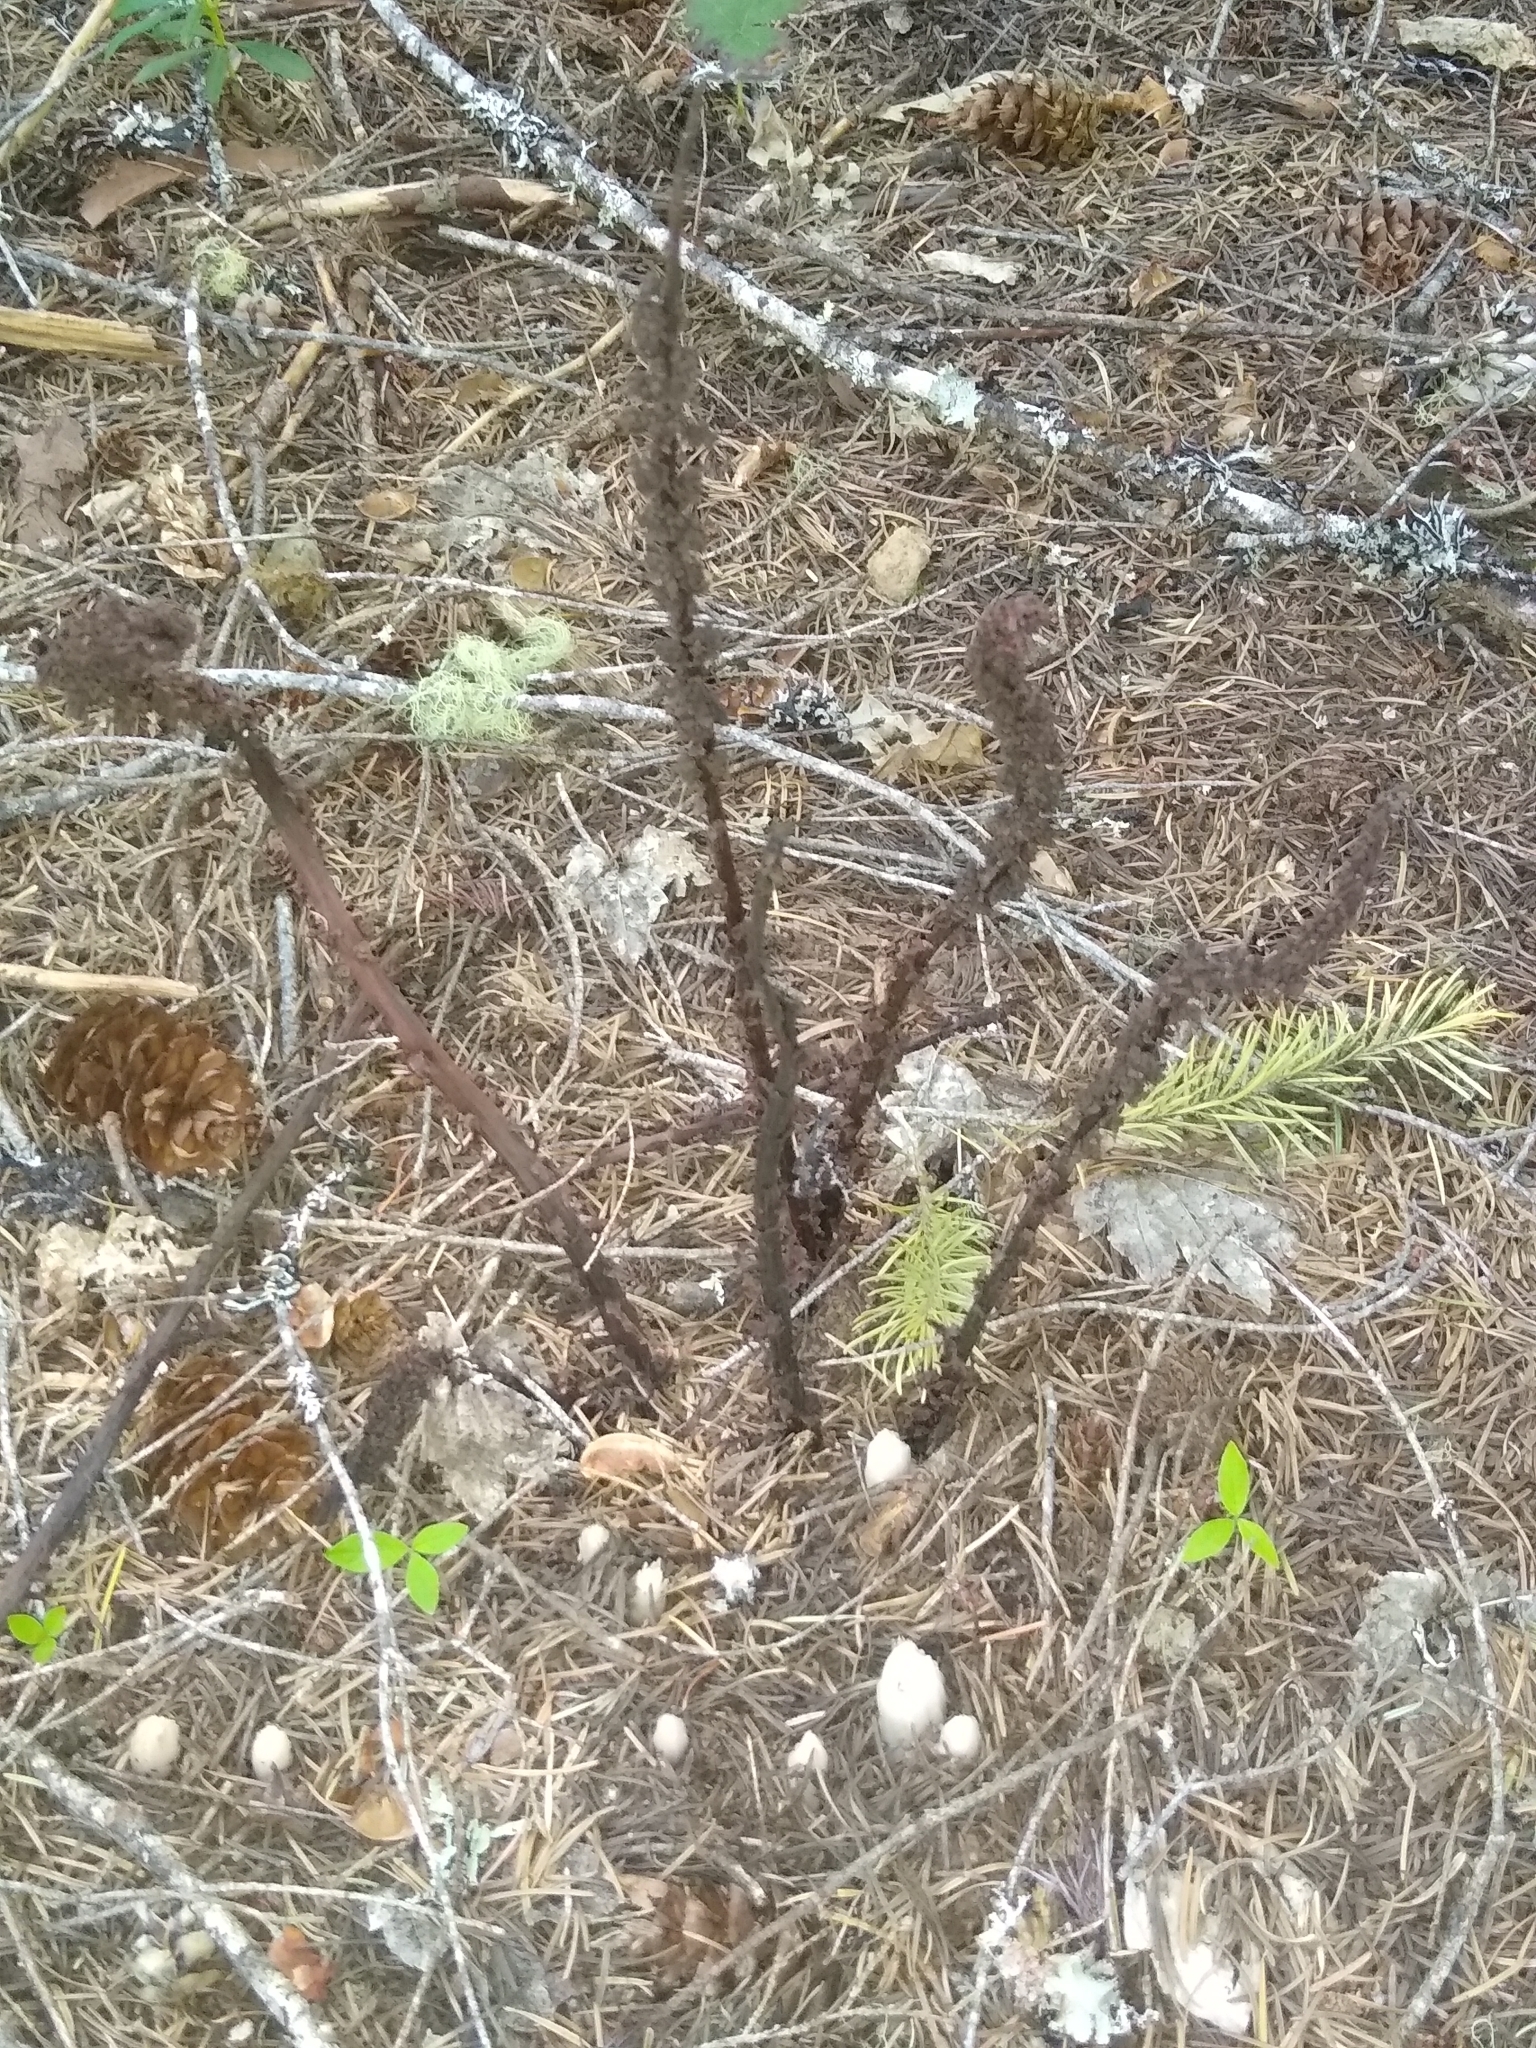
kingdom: Plantae
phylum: Tracheophyta
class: Magnoliopsida
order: Ericales
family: Ericaceae
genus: Allotropa
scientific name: Allotropa virgata
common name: Candy-striped allotropa
